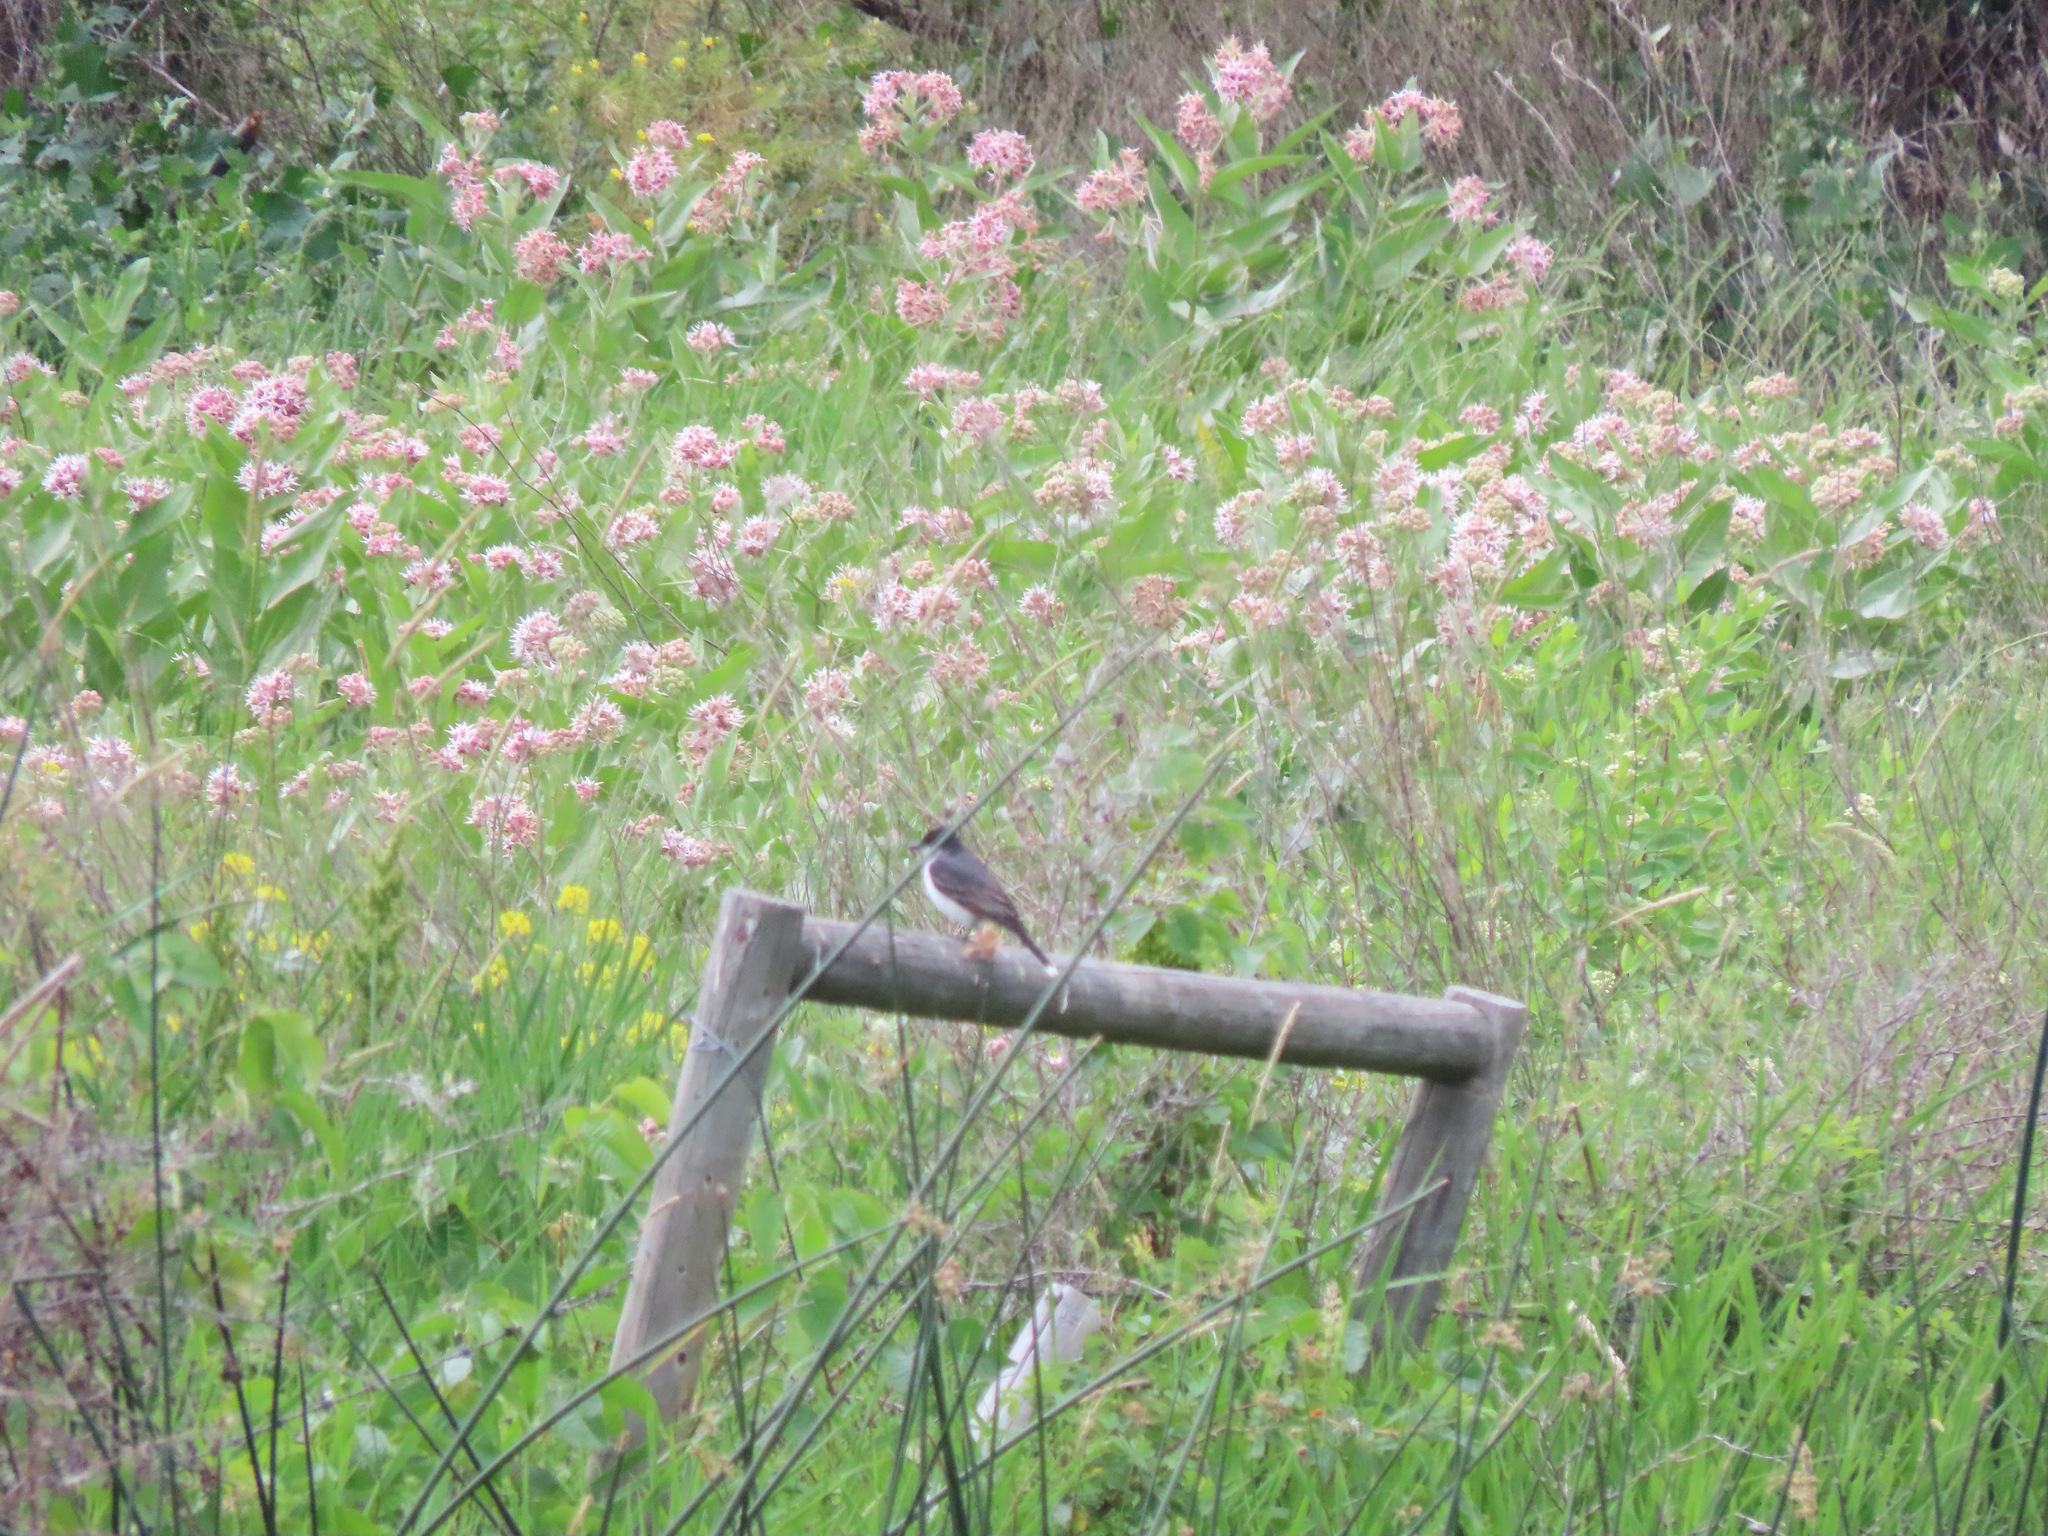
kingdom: Animalia
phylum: Chordata
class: Aves
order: Passeriformes
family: Tyrannidae
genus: Tyrannus
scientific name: Tyrannus tyrannus
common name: Eastern kingbird
